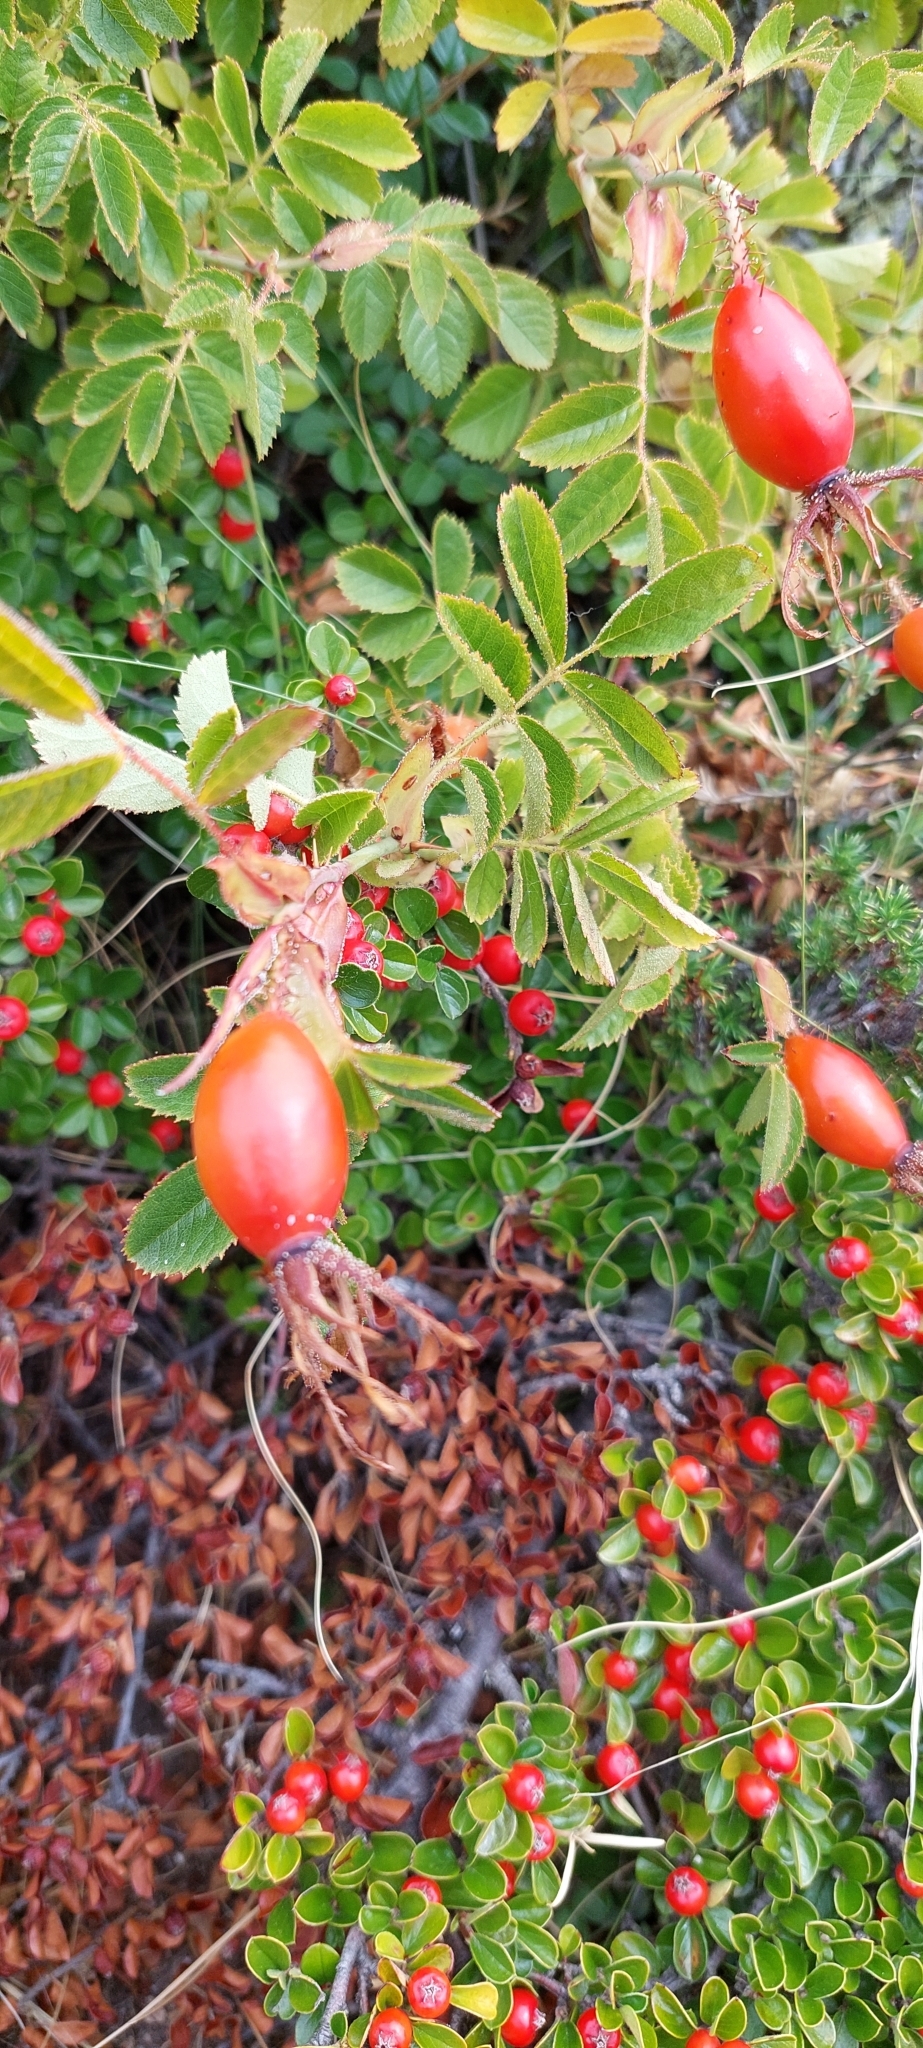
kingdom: Plantae
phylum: Tracheophyta
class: Magnoliopsida
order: Rosales
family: Rosaceae
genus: Rosa
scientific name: Rosa rubiginosa
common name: Sweet-briar
